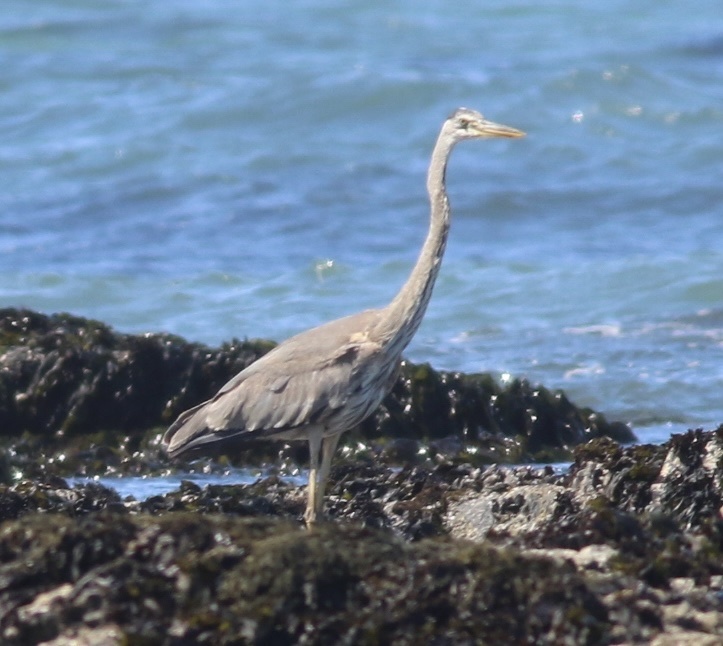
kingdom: Animalia
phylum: Chordata
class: Aves
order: Pelecaniformes
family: Ardeidae
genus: Ardea
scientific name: Ardea herodias
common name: Great blue heron
